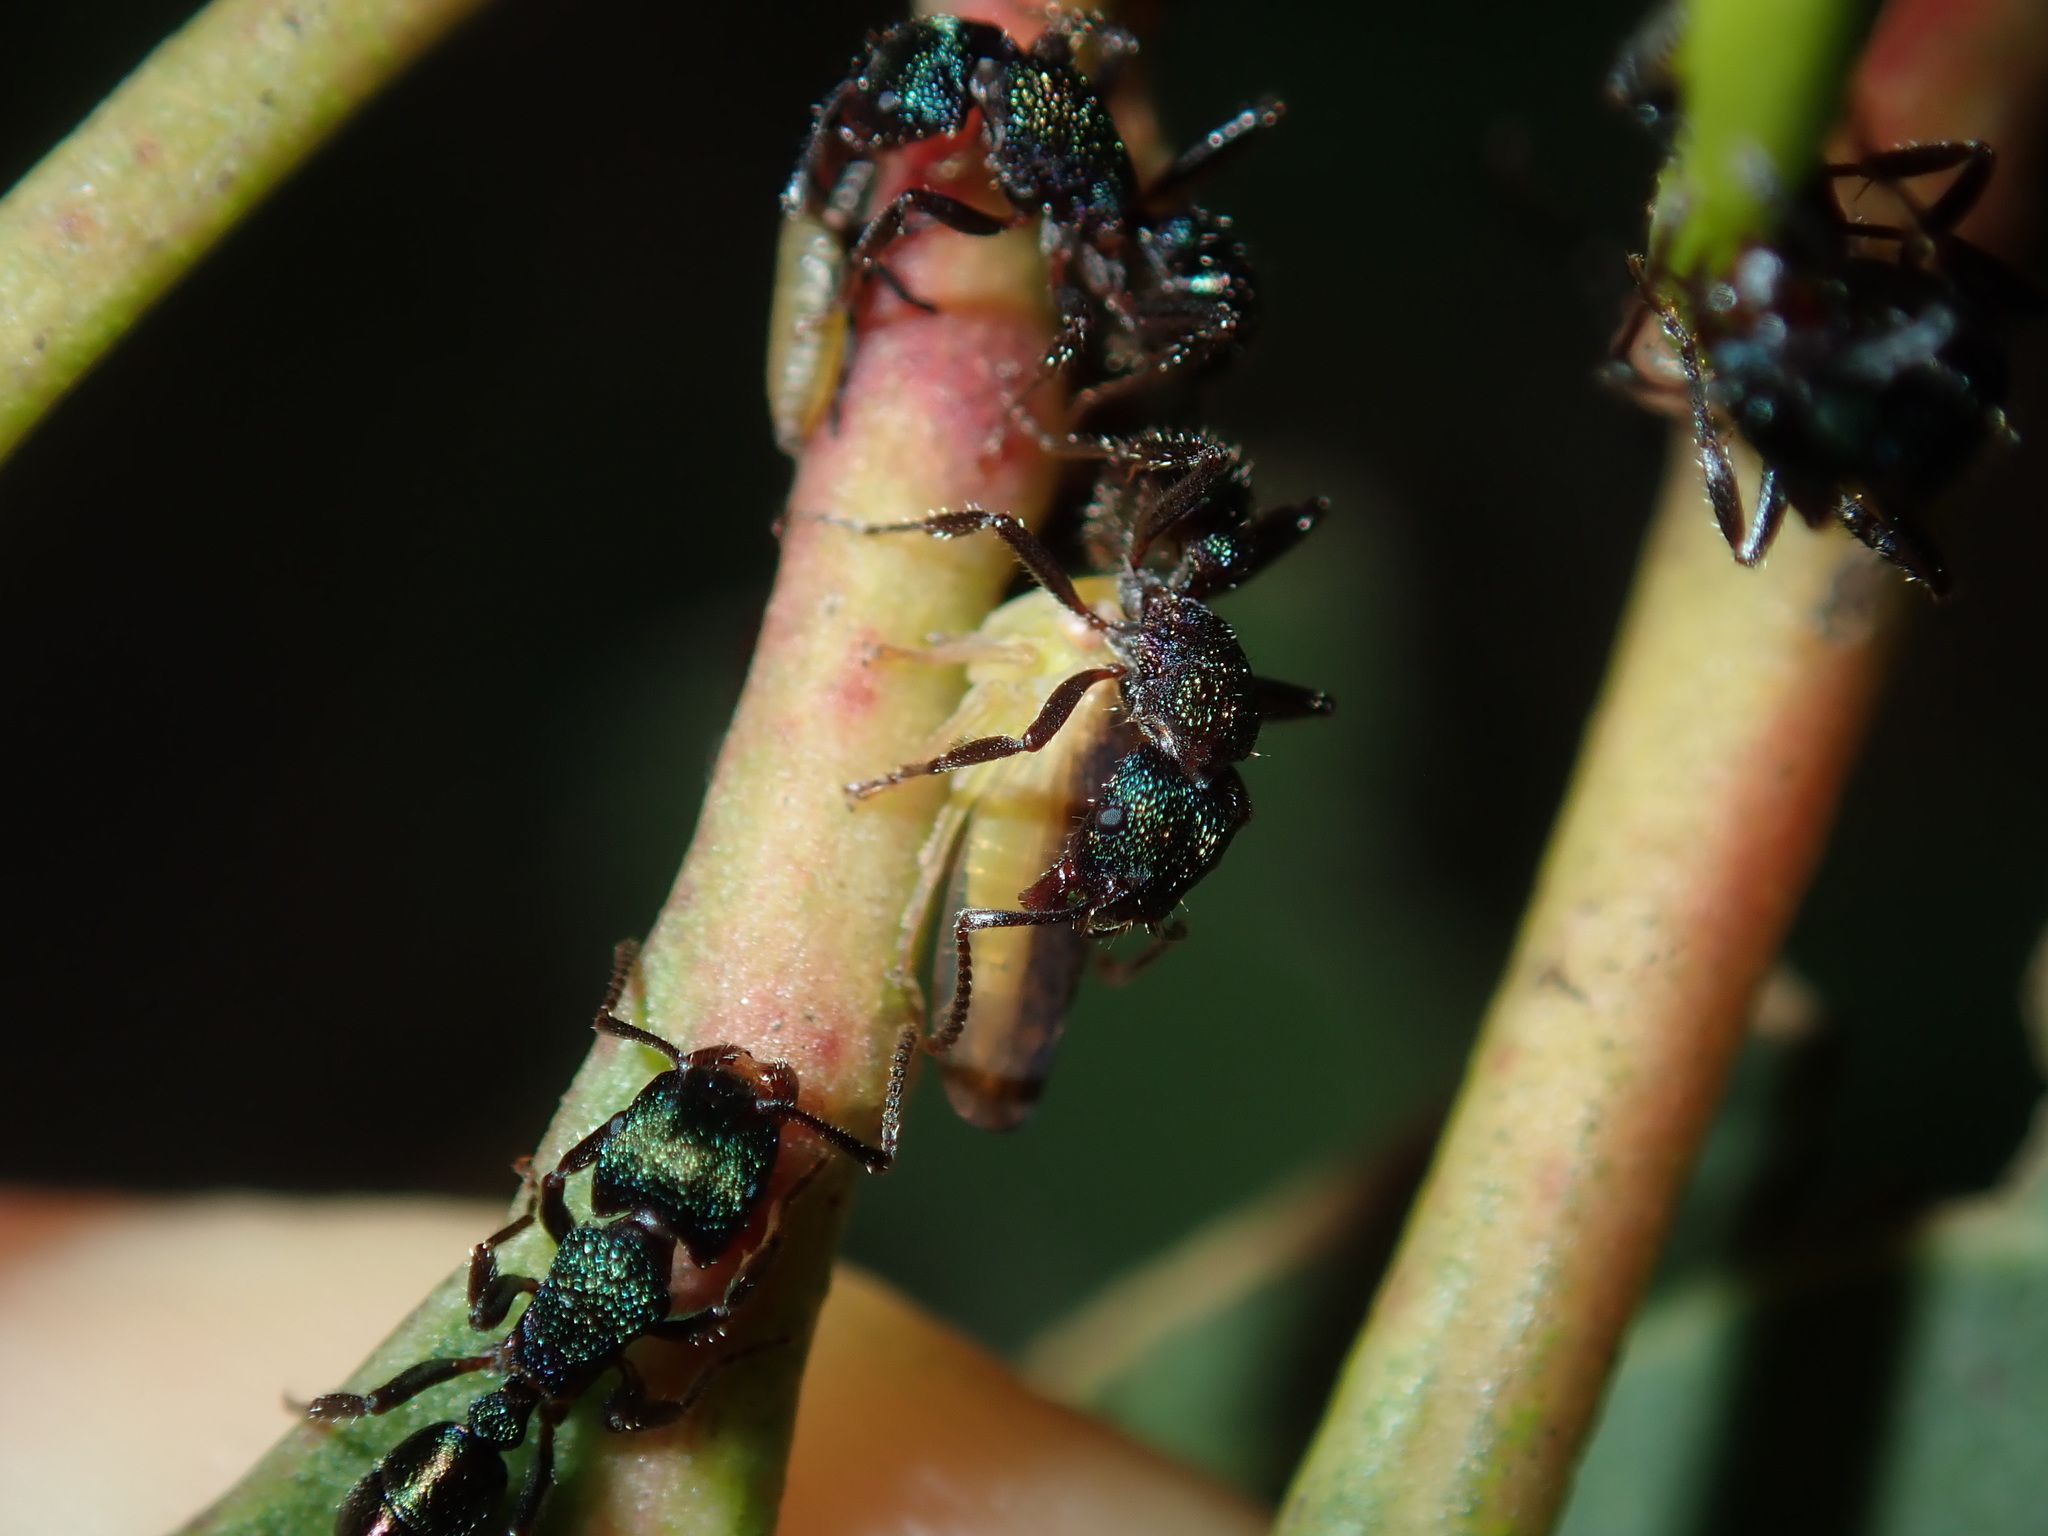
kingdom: Animalia
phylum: Arthropoda
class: Insecta
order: Hymenoptera
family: Formicidae
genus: Rhytidoponera
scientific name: Rhytidoponera metallica
